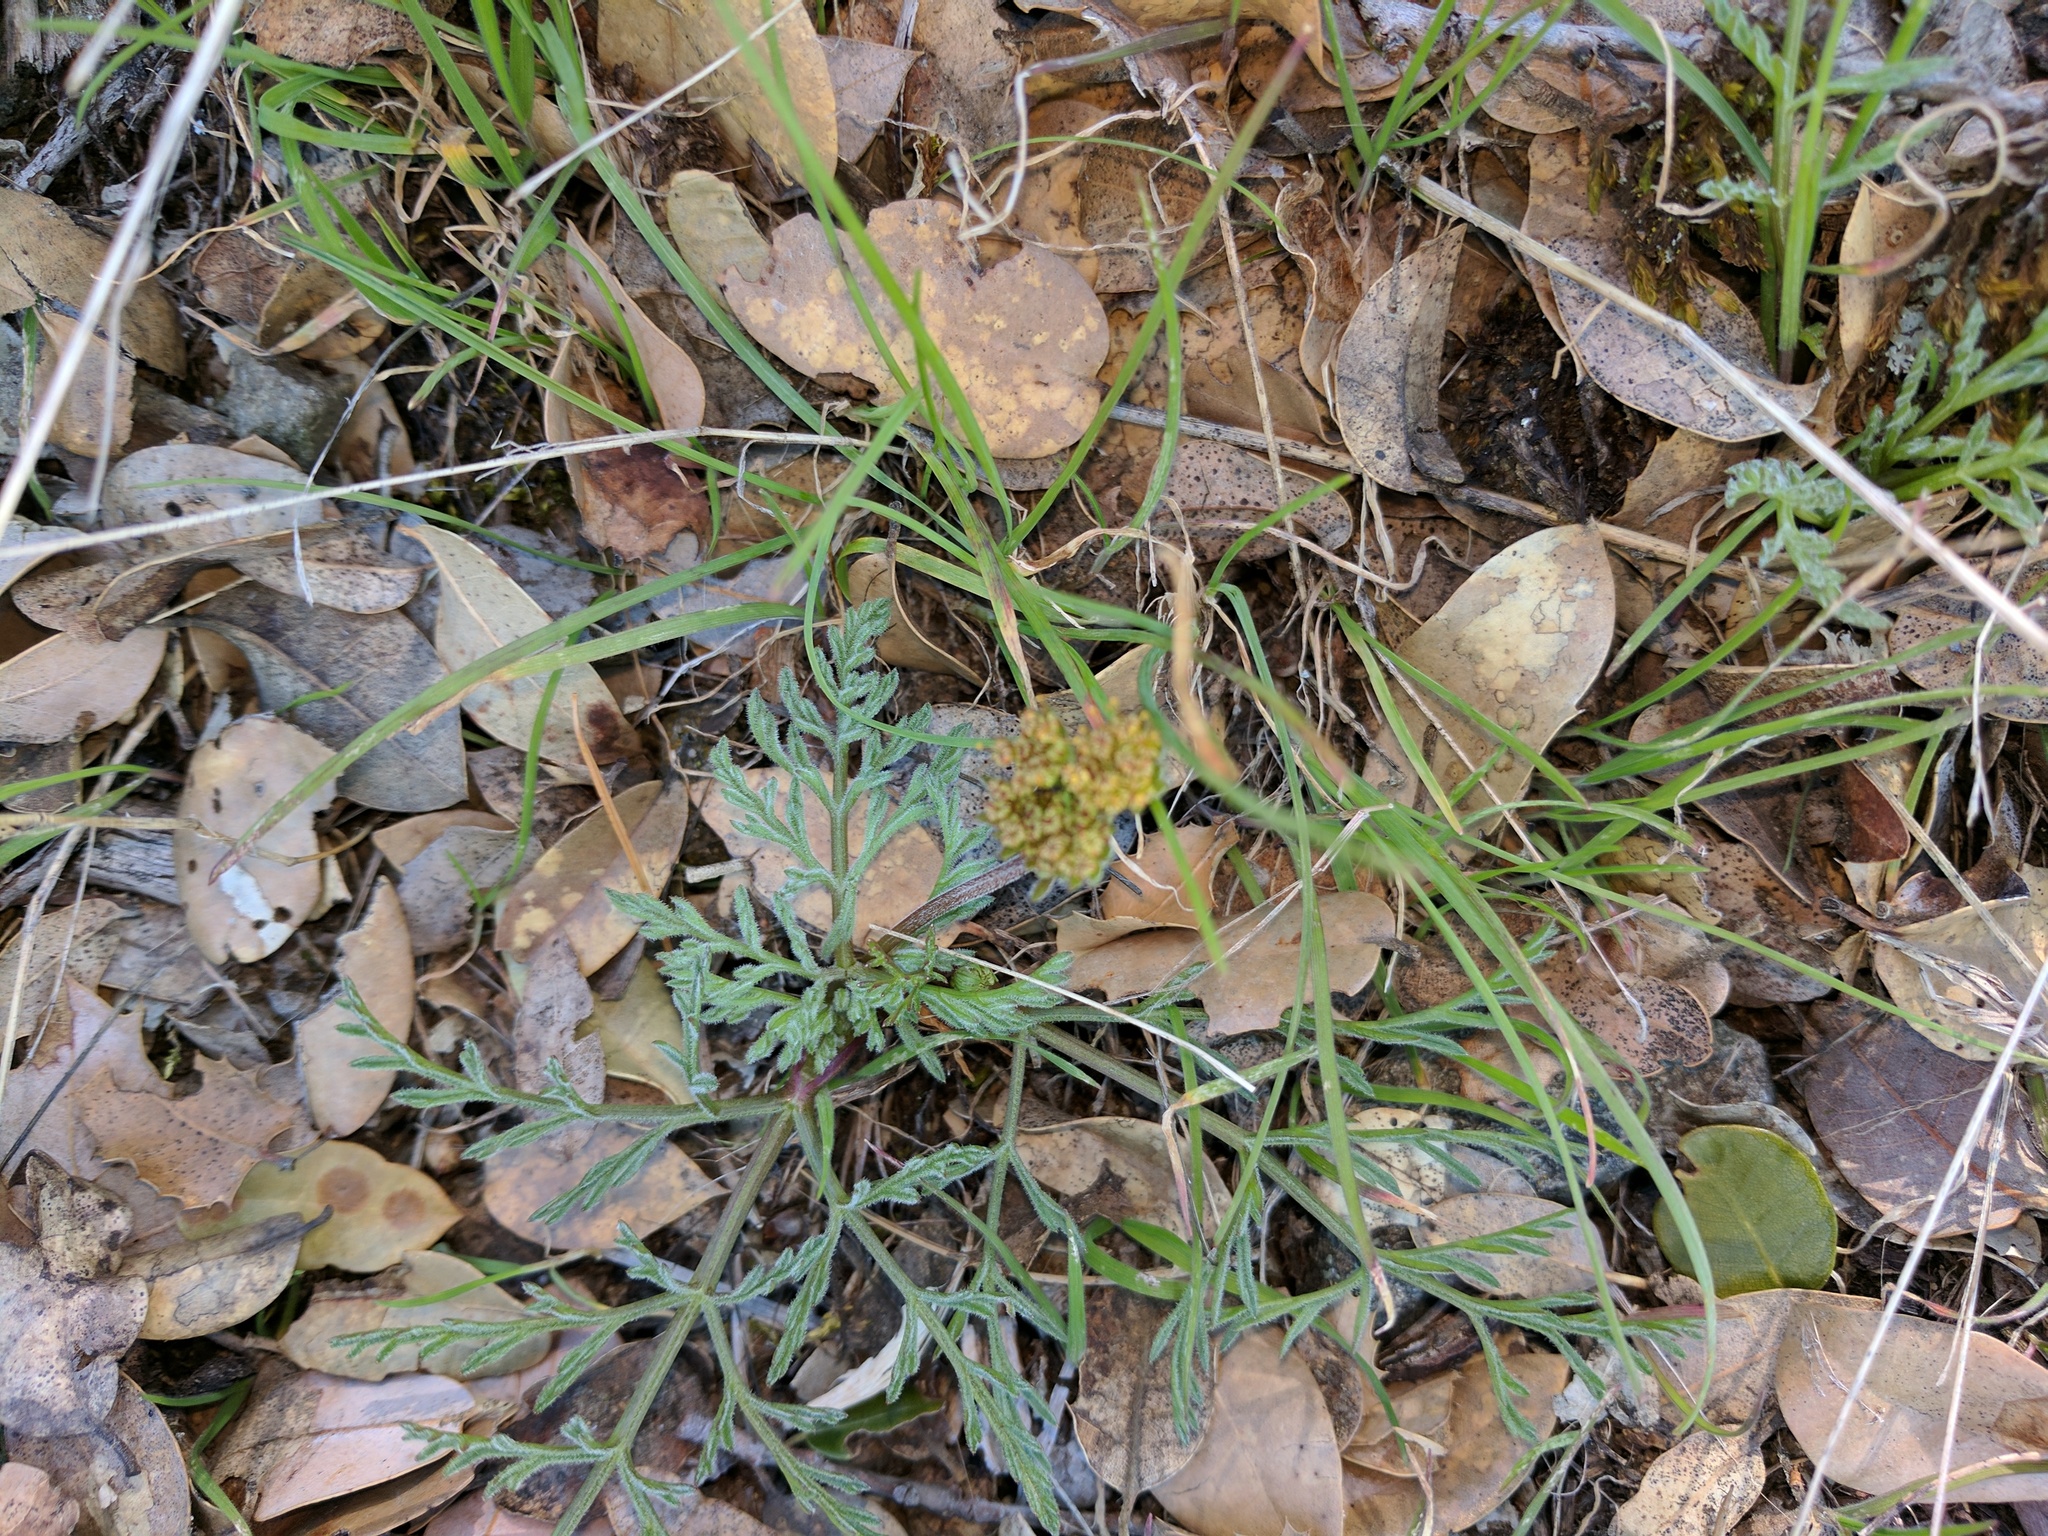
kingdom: Plantae
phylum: Tracheophyta
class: Magnoliopsida
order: Apiales
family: Apiaceae
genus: Lomatium
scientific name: Lomatium observatorium
